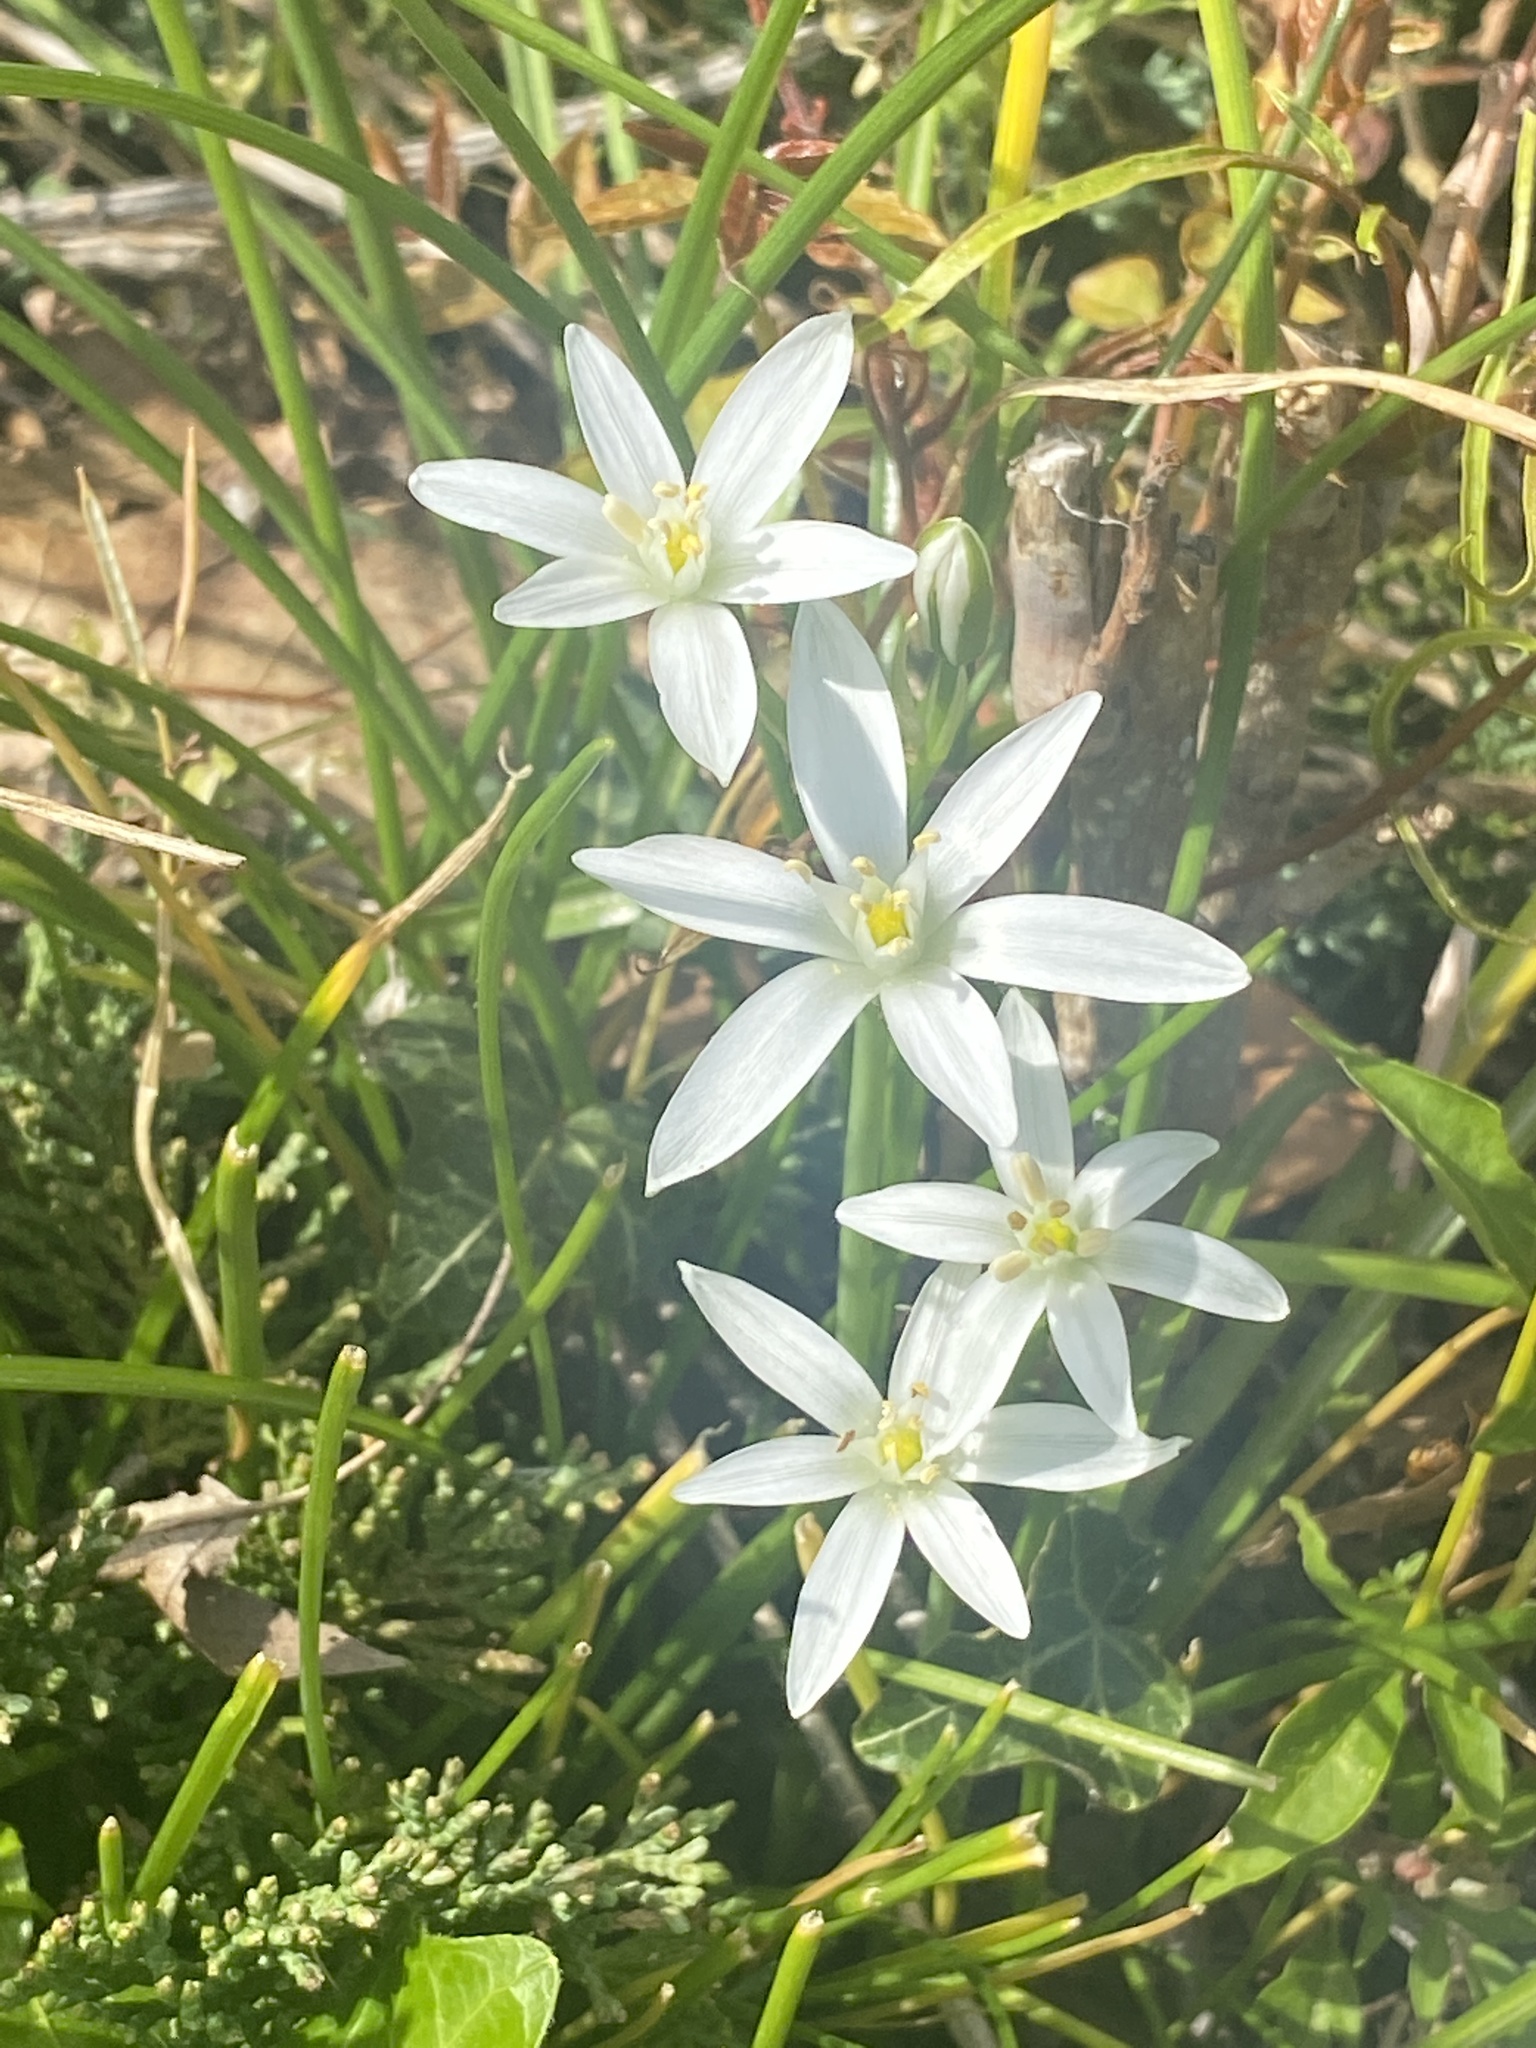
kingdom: Plantae
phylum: Tracheophyta
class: Liliopsida
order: Asparagales
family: Asparagaceae
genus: Ornithogalum
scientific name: Ornithogalum umbellatum
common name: Garden star-of-bethlehem
